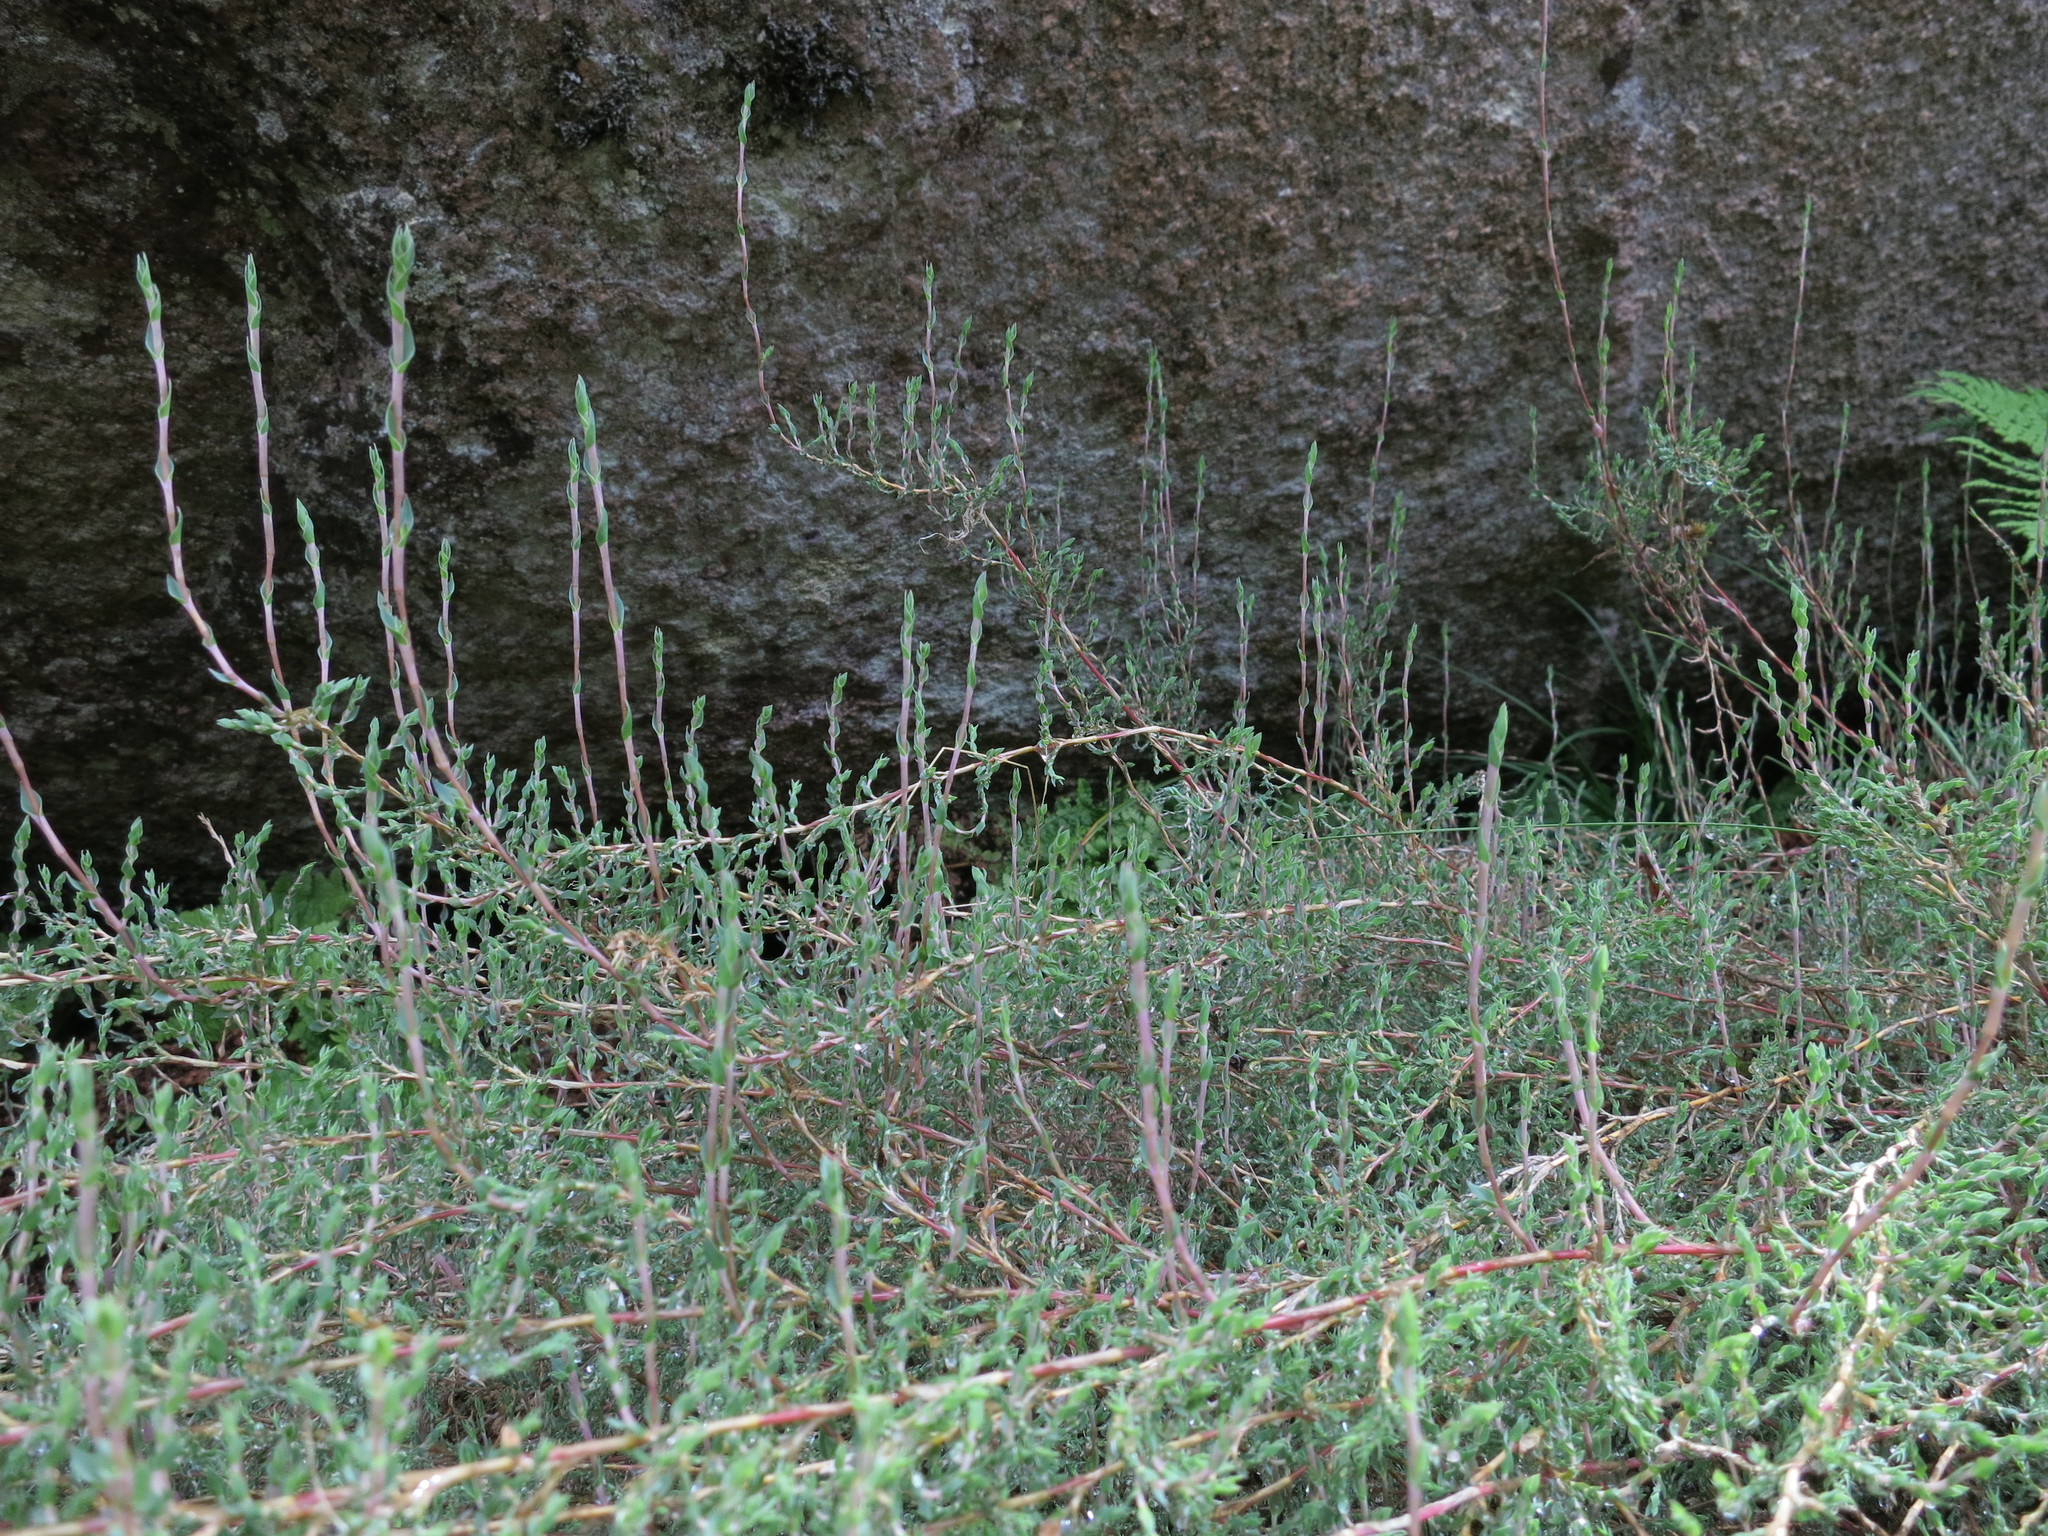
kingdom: Plantae
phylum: Tracheophyta
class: Liliopsida
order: Poales
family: Poaceae
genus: Panicum
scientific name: Panicum cupressifolium
